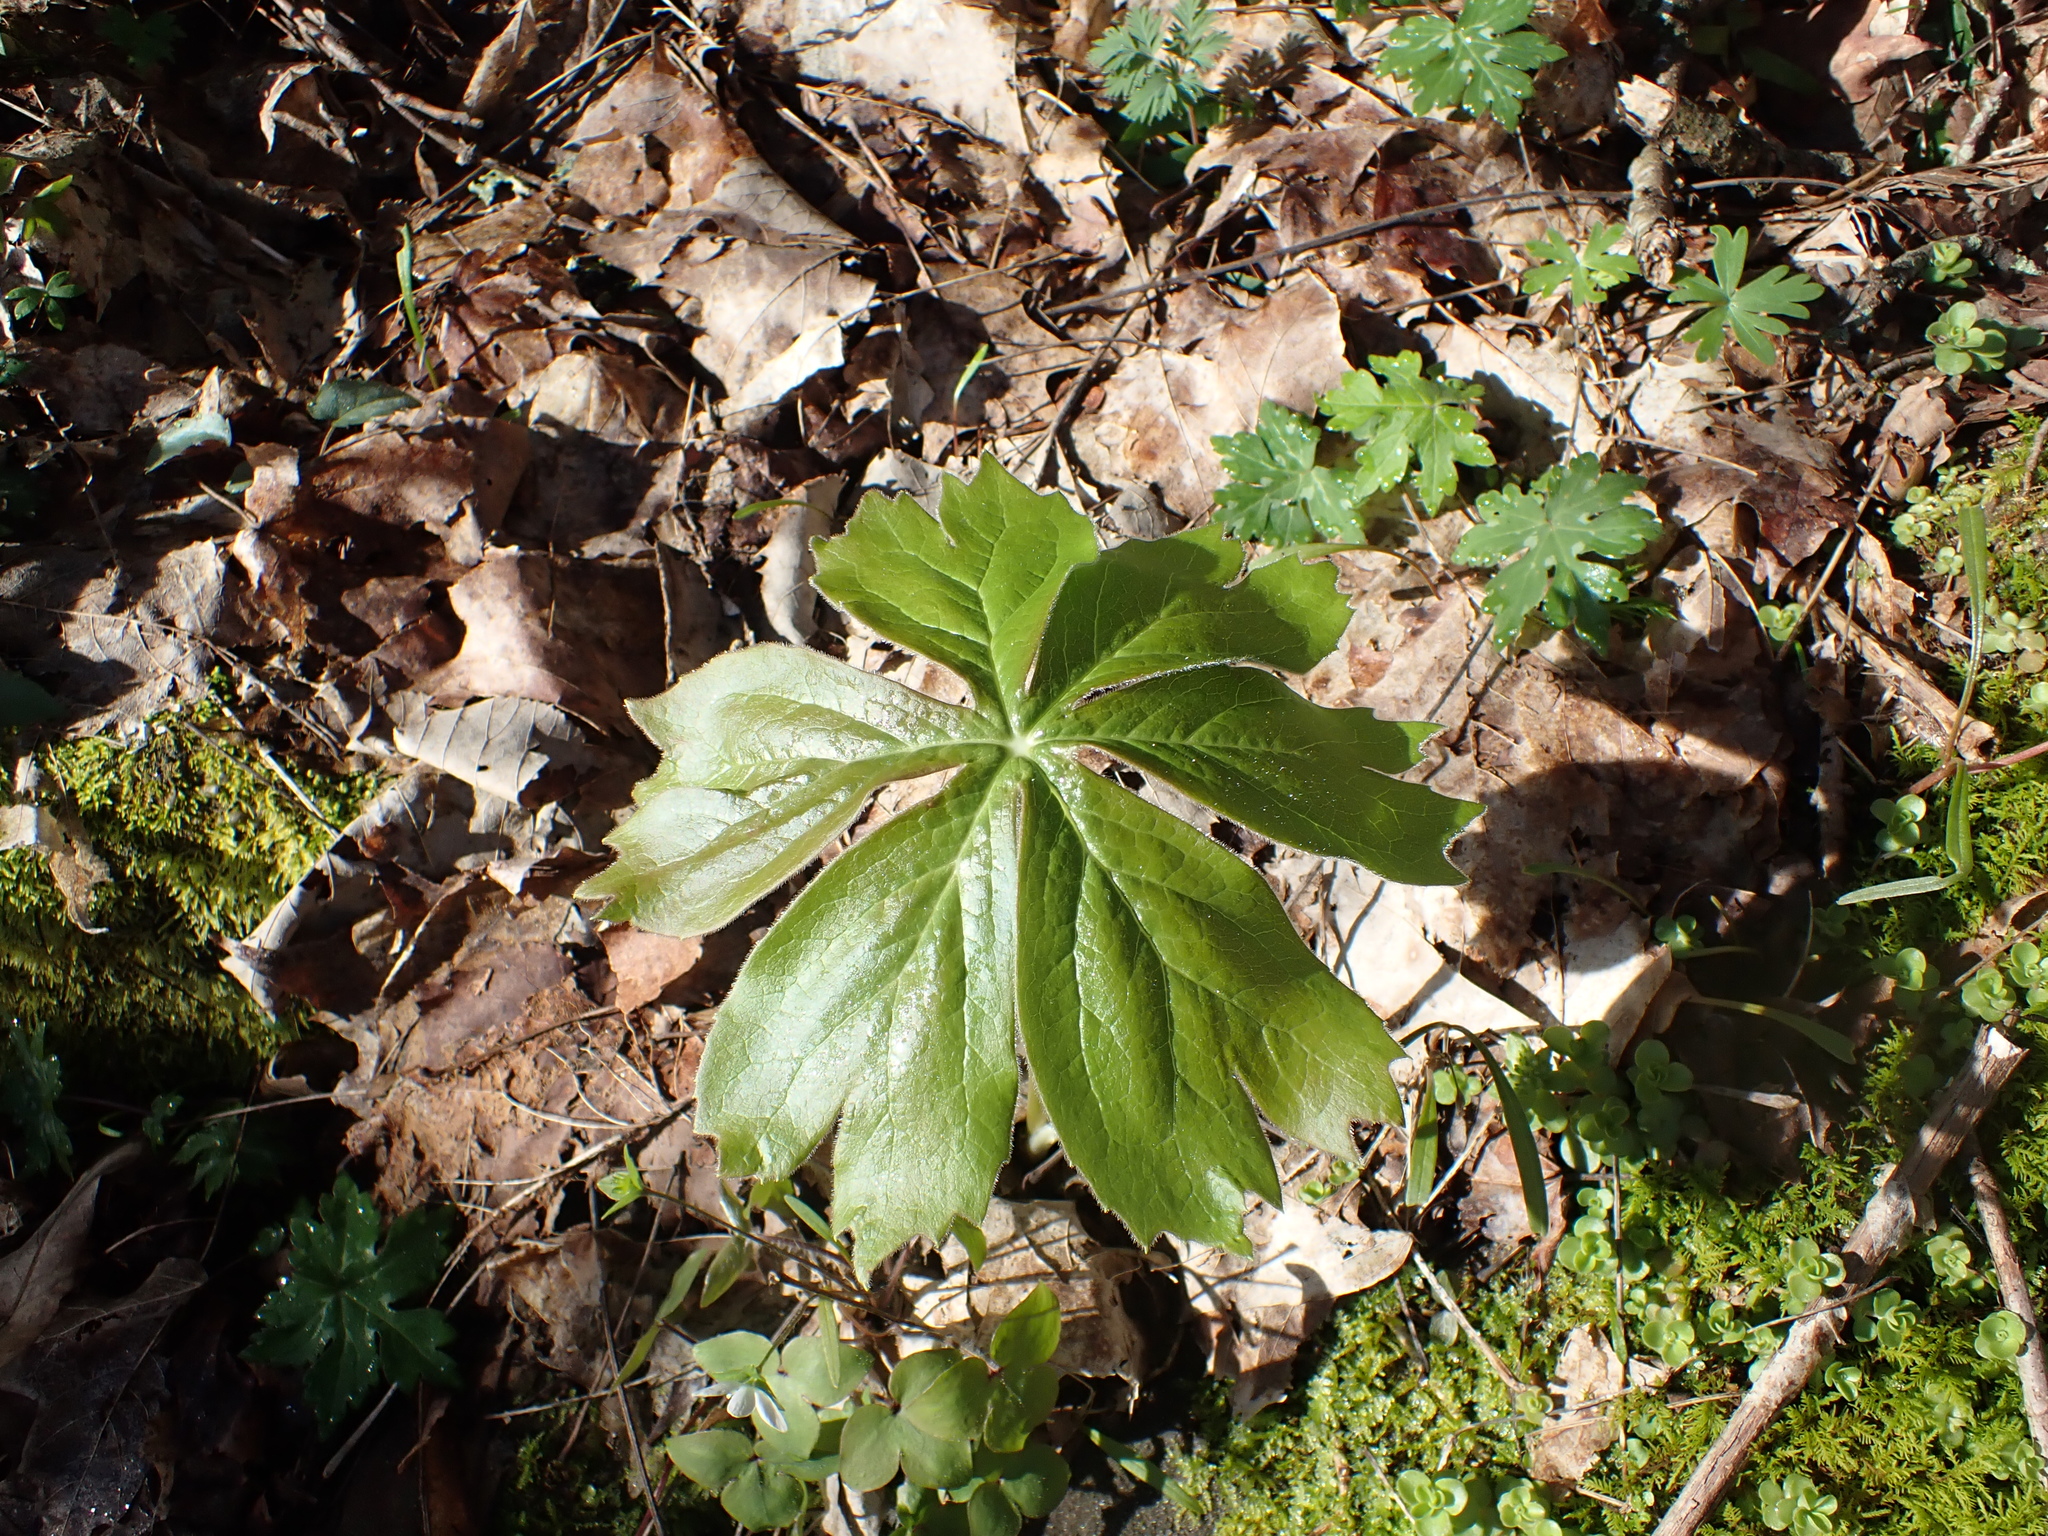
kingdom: Plantae
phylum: Tracheophyta
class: Magnoliopsida
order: Ranunculales
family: Berberidaceae
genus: Podophyllum
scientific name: Podophyllum peltatum
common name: Wild mandrake
